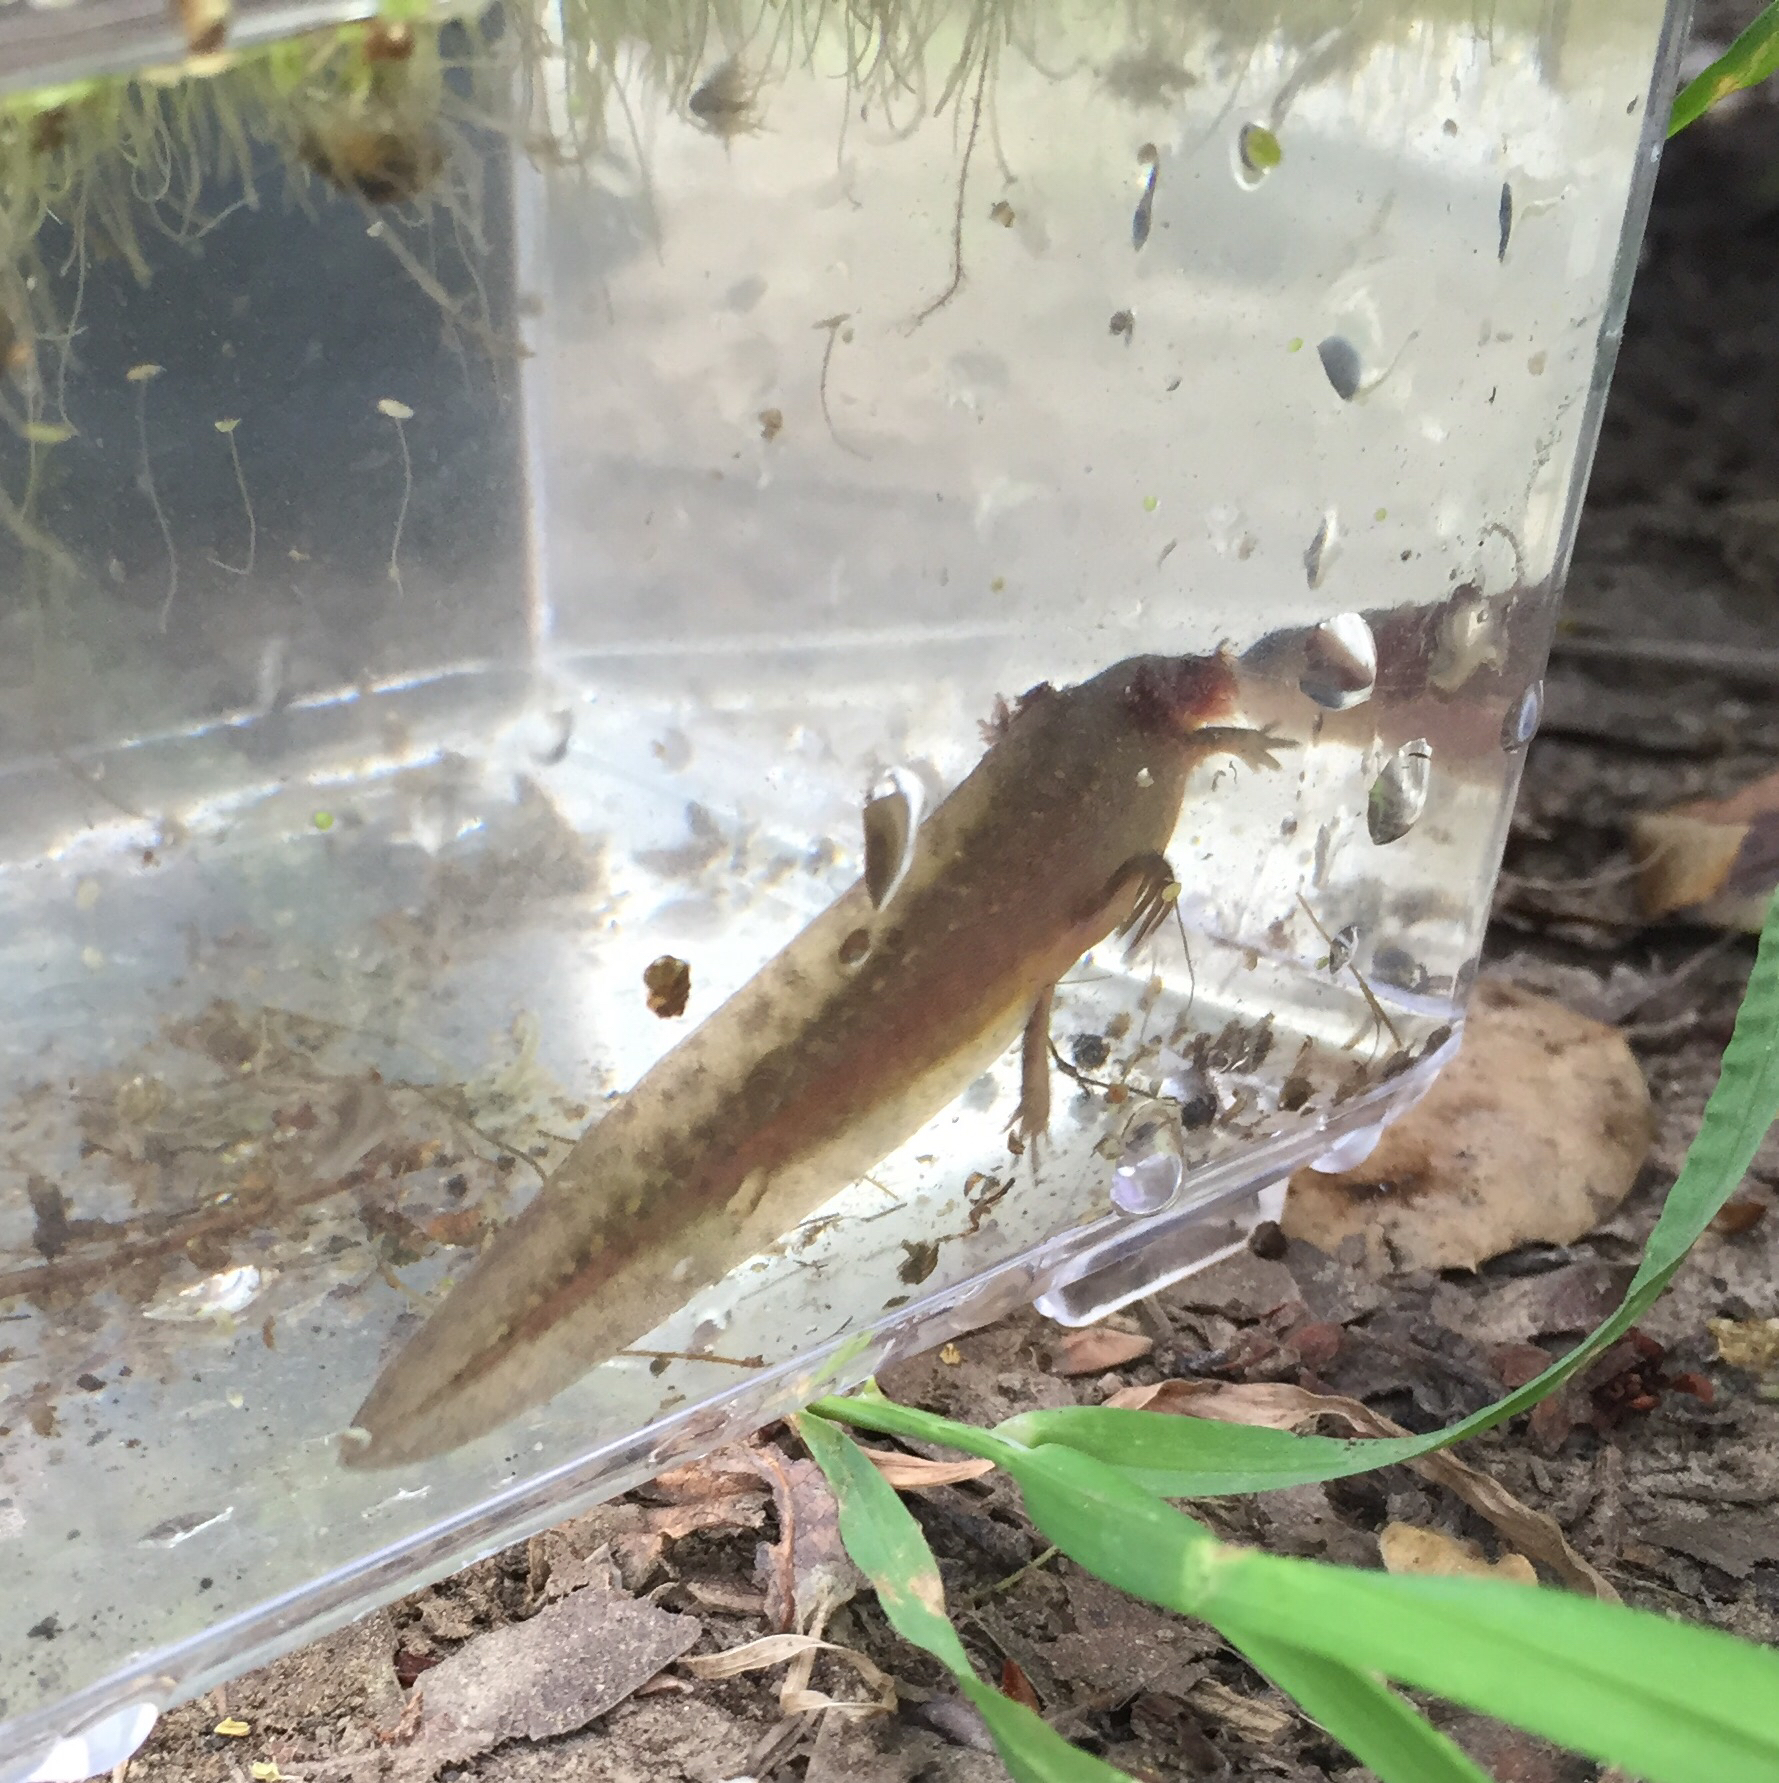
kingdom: Animalia
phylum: Chordata
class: Amphibia
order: Caudata
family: Ambystomatidae
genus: Dicamptodon
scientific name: Dicamptodon ensatus
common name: California giant salamander
